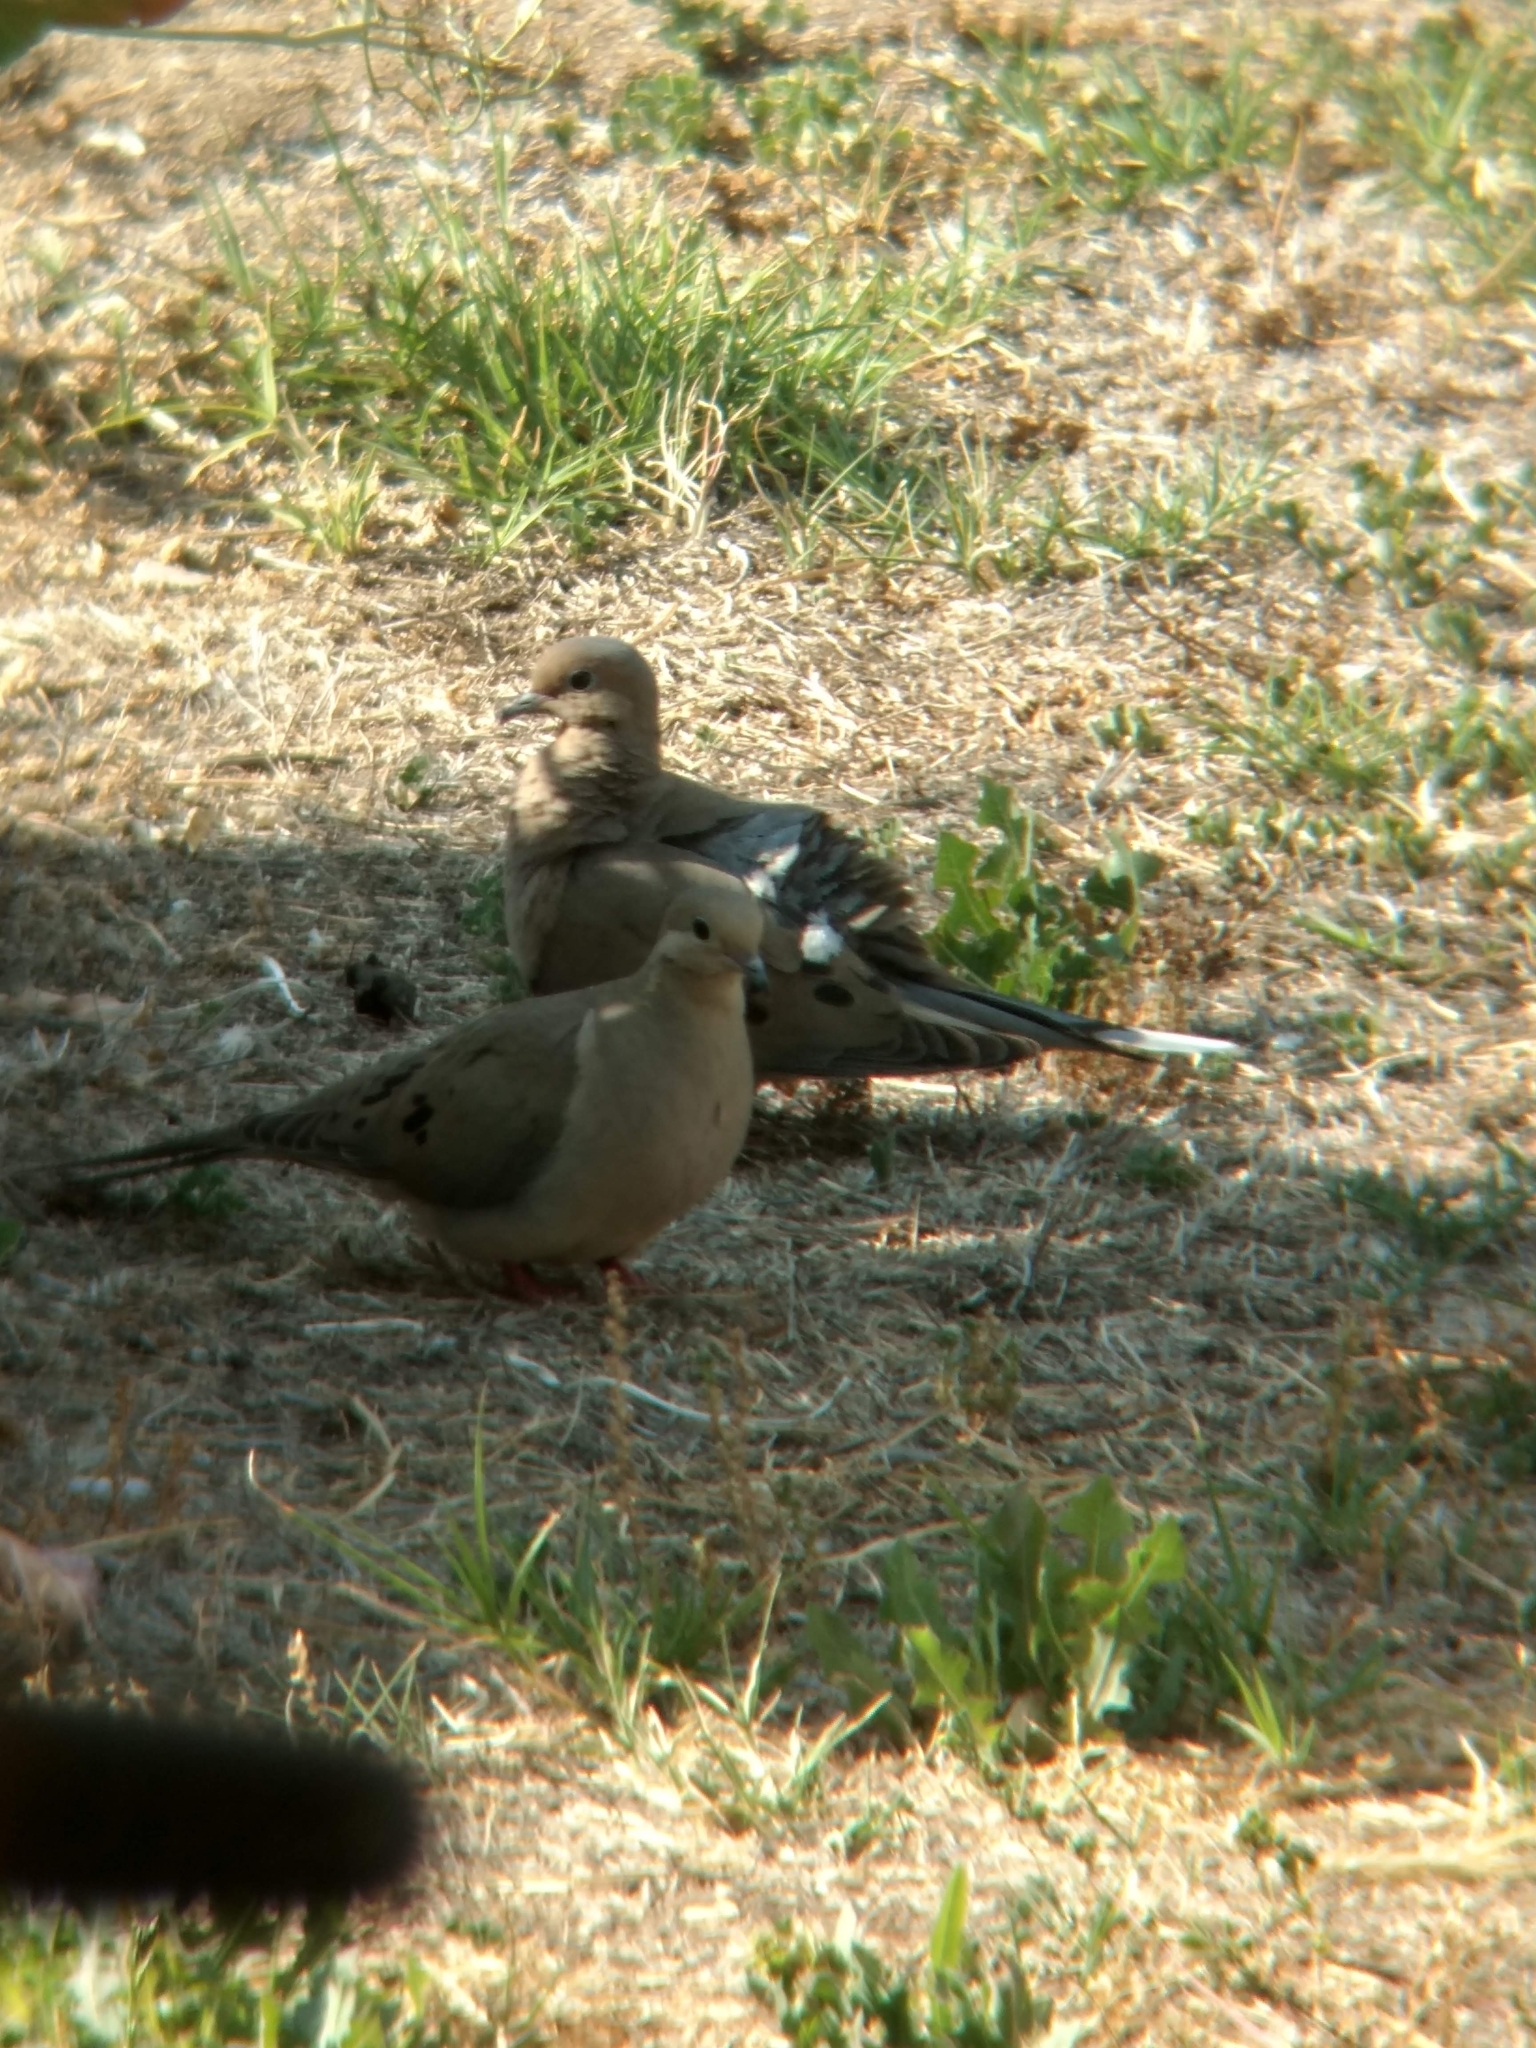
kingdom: Animalia
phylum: Chordata
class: Aves
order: Columbiformes
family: Columbidae
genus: Zenaida
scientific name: Zenaida macroura
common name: Mourning dove
